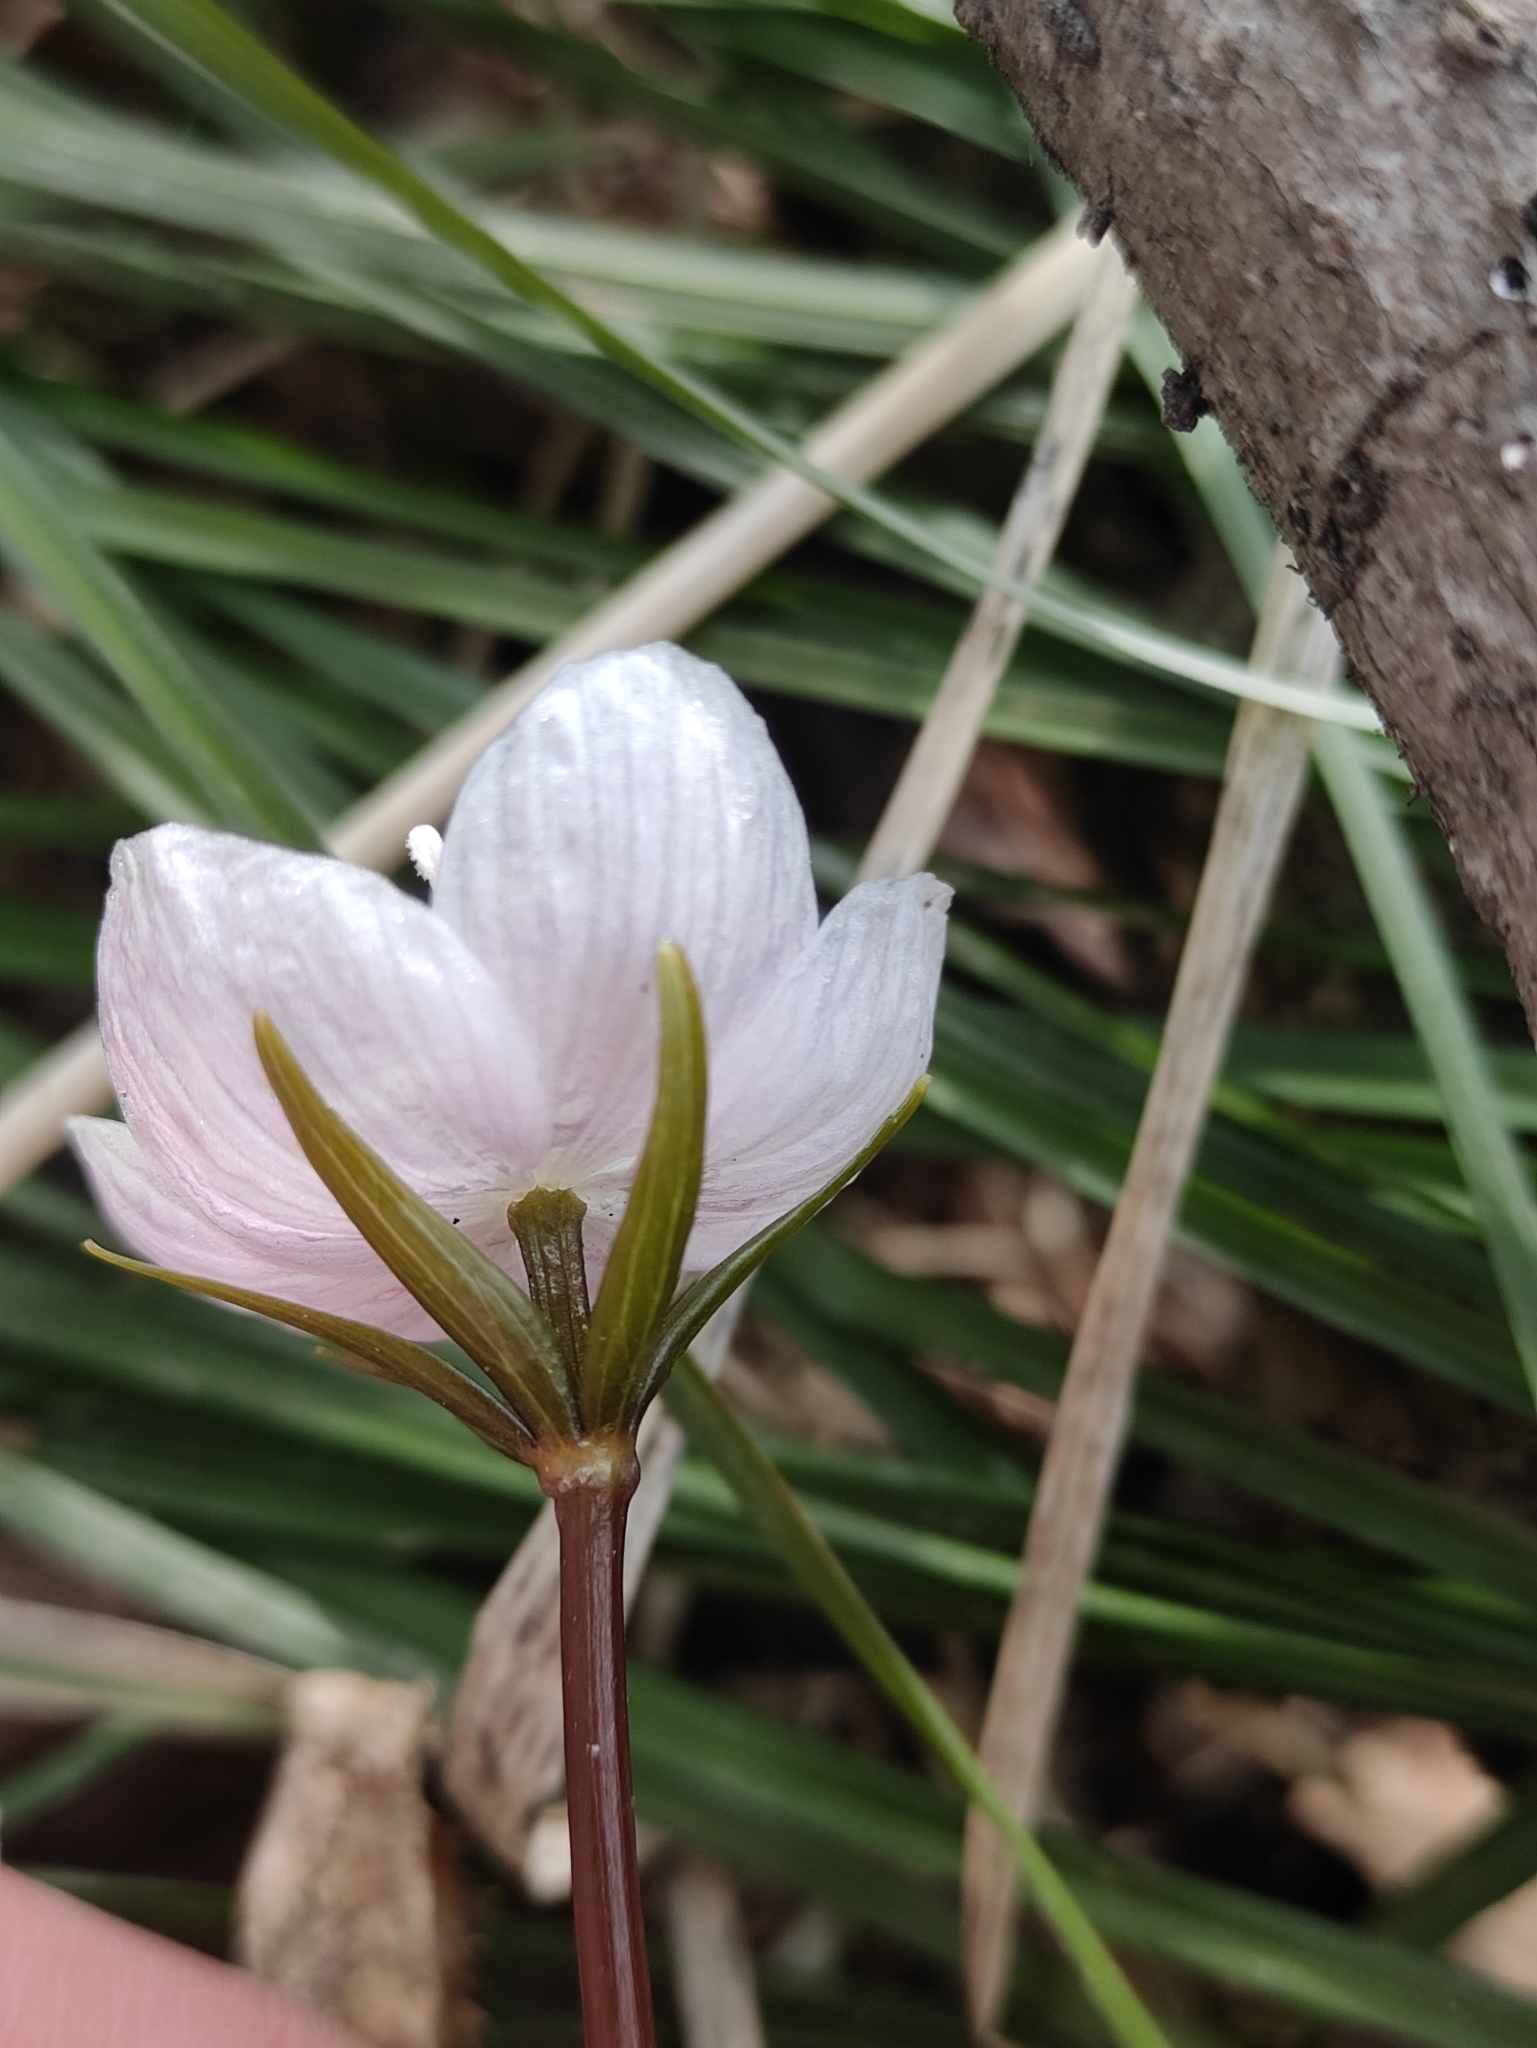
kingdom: Plantae
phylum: Tracheophyta
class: Magnoliopsida
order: Ranunculales
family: Ranunculaceae
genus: Eranthis
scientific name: Eranthis sibirica
